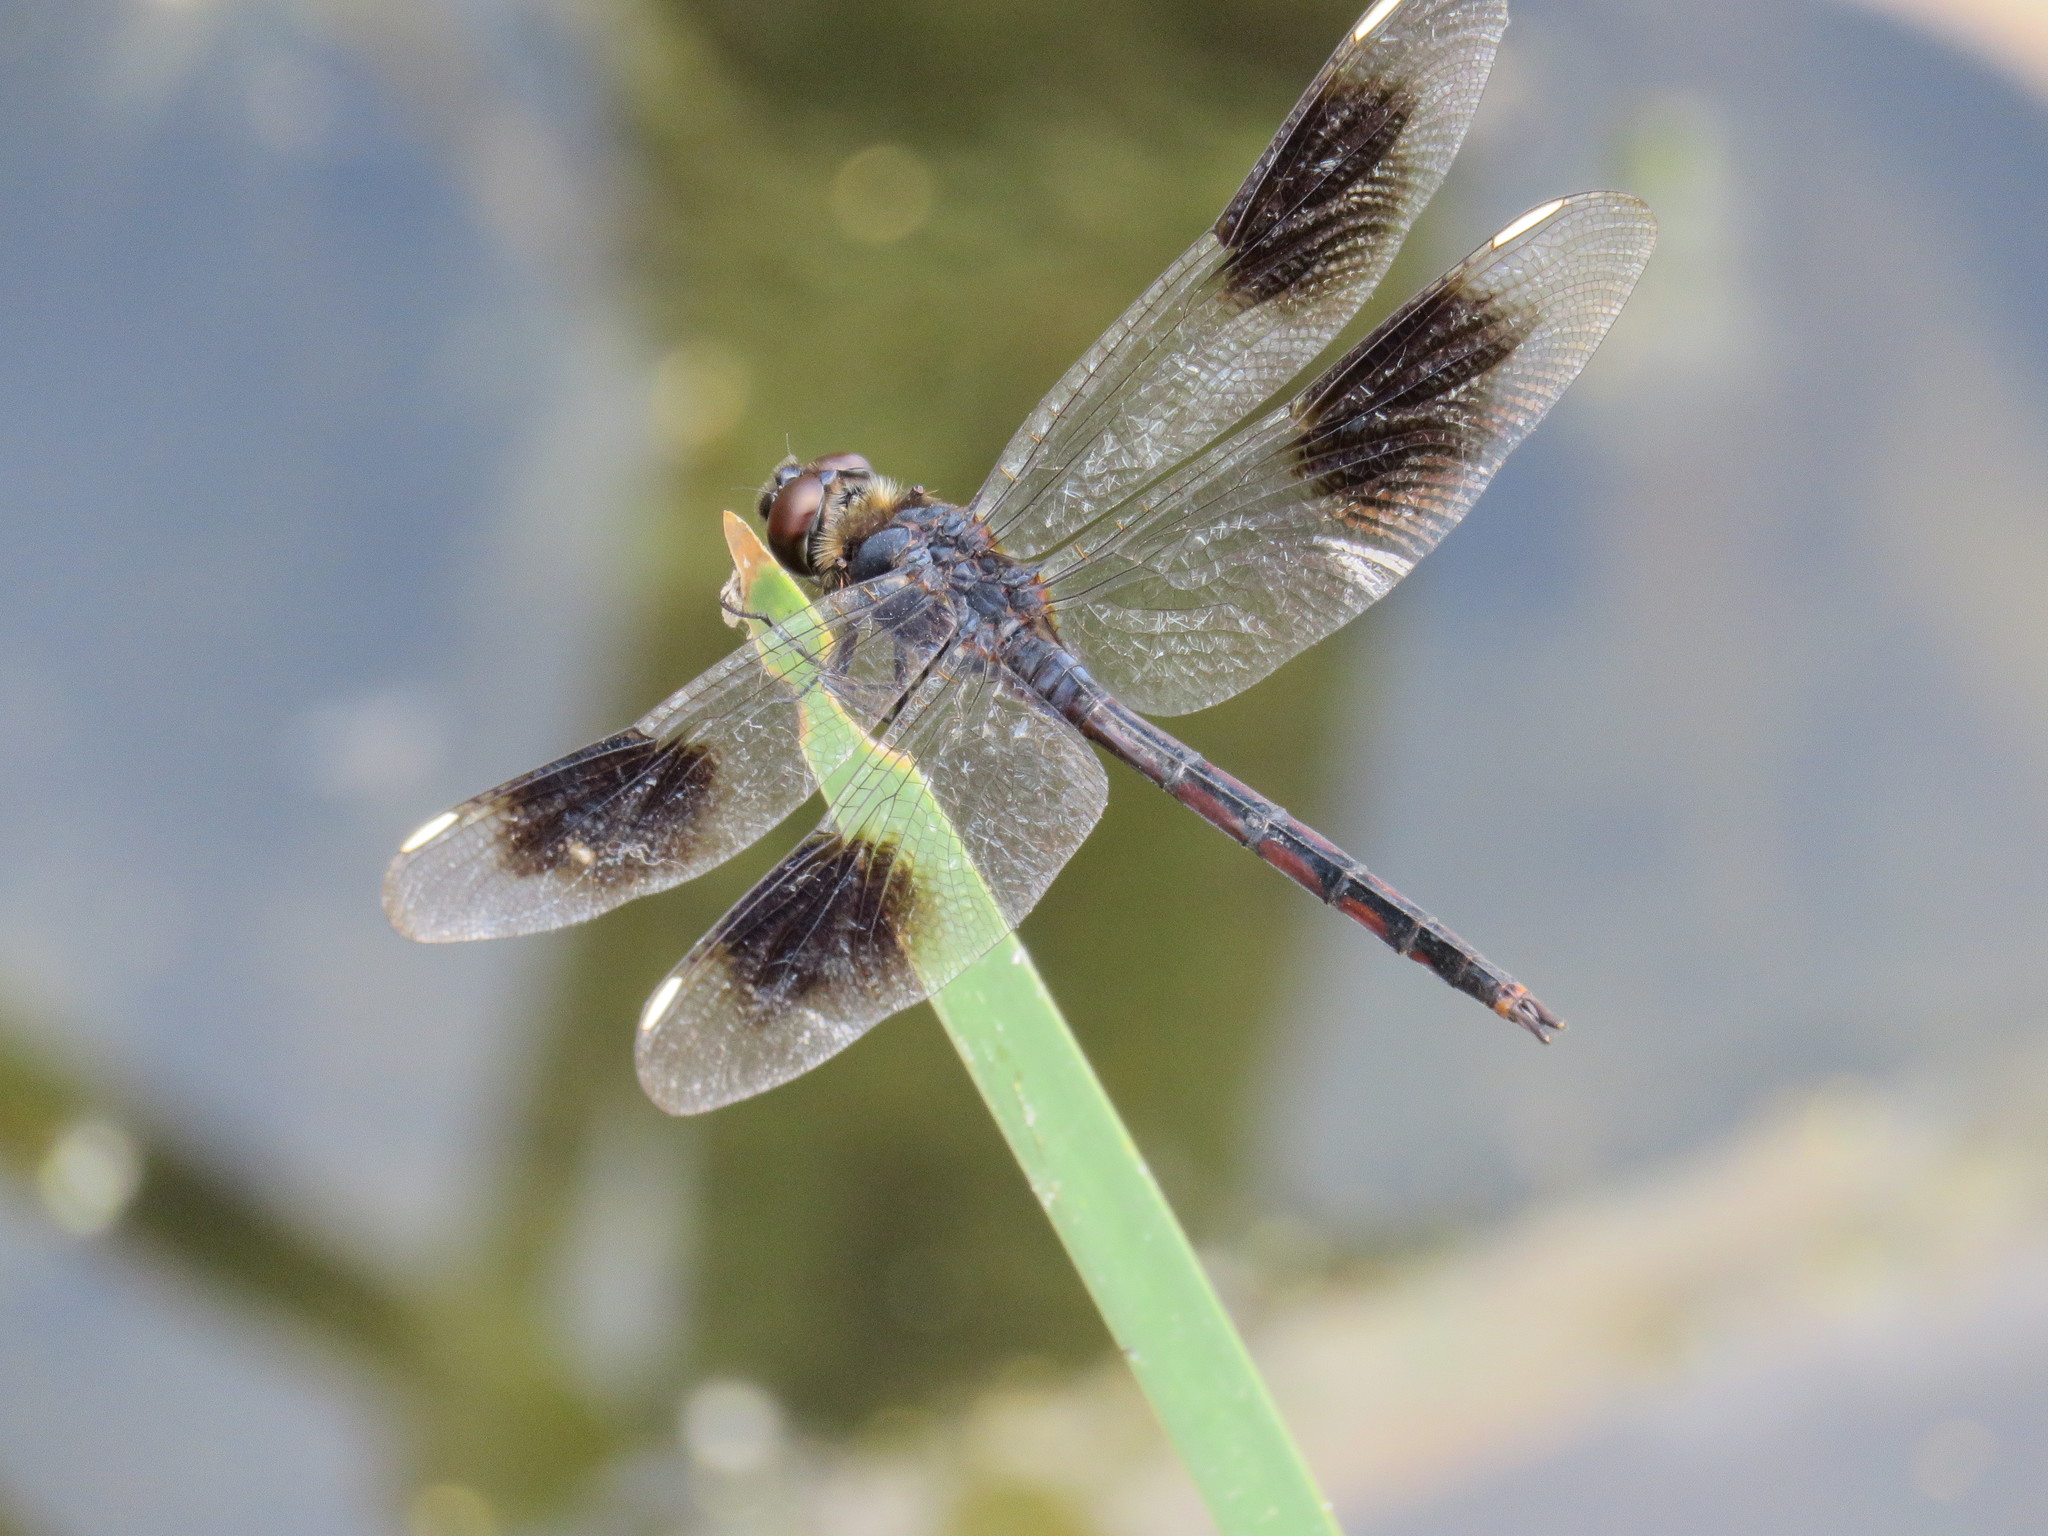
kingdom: Animalia
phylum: Arthropoda
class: Insecta
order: Odonata
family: Libellulidae
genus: Brachymesia
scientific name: Brachymesia gravida
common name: Four-spotted pennant
